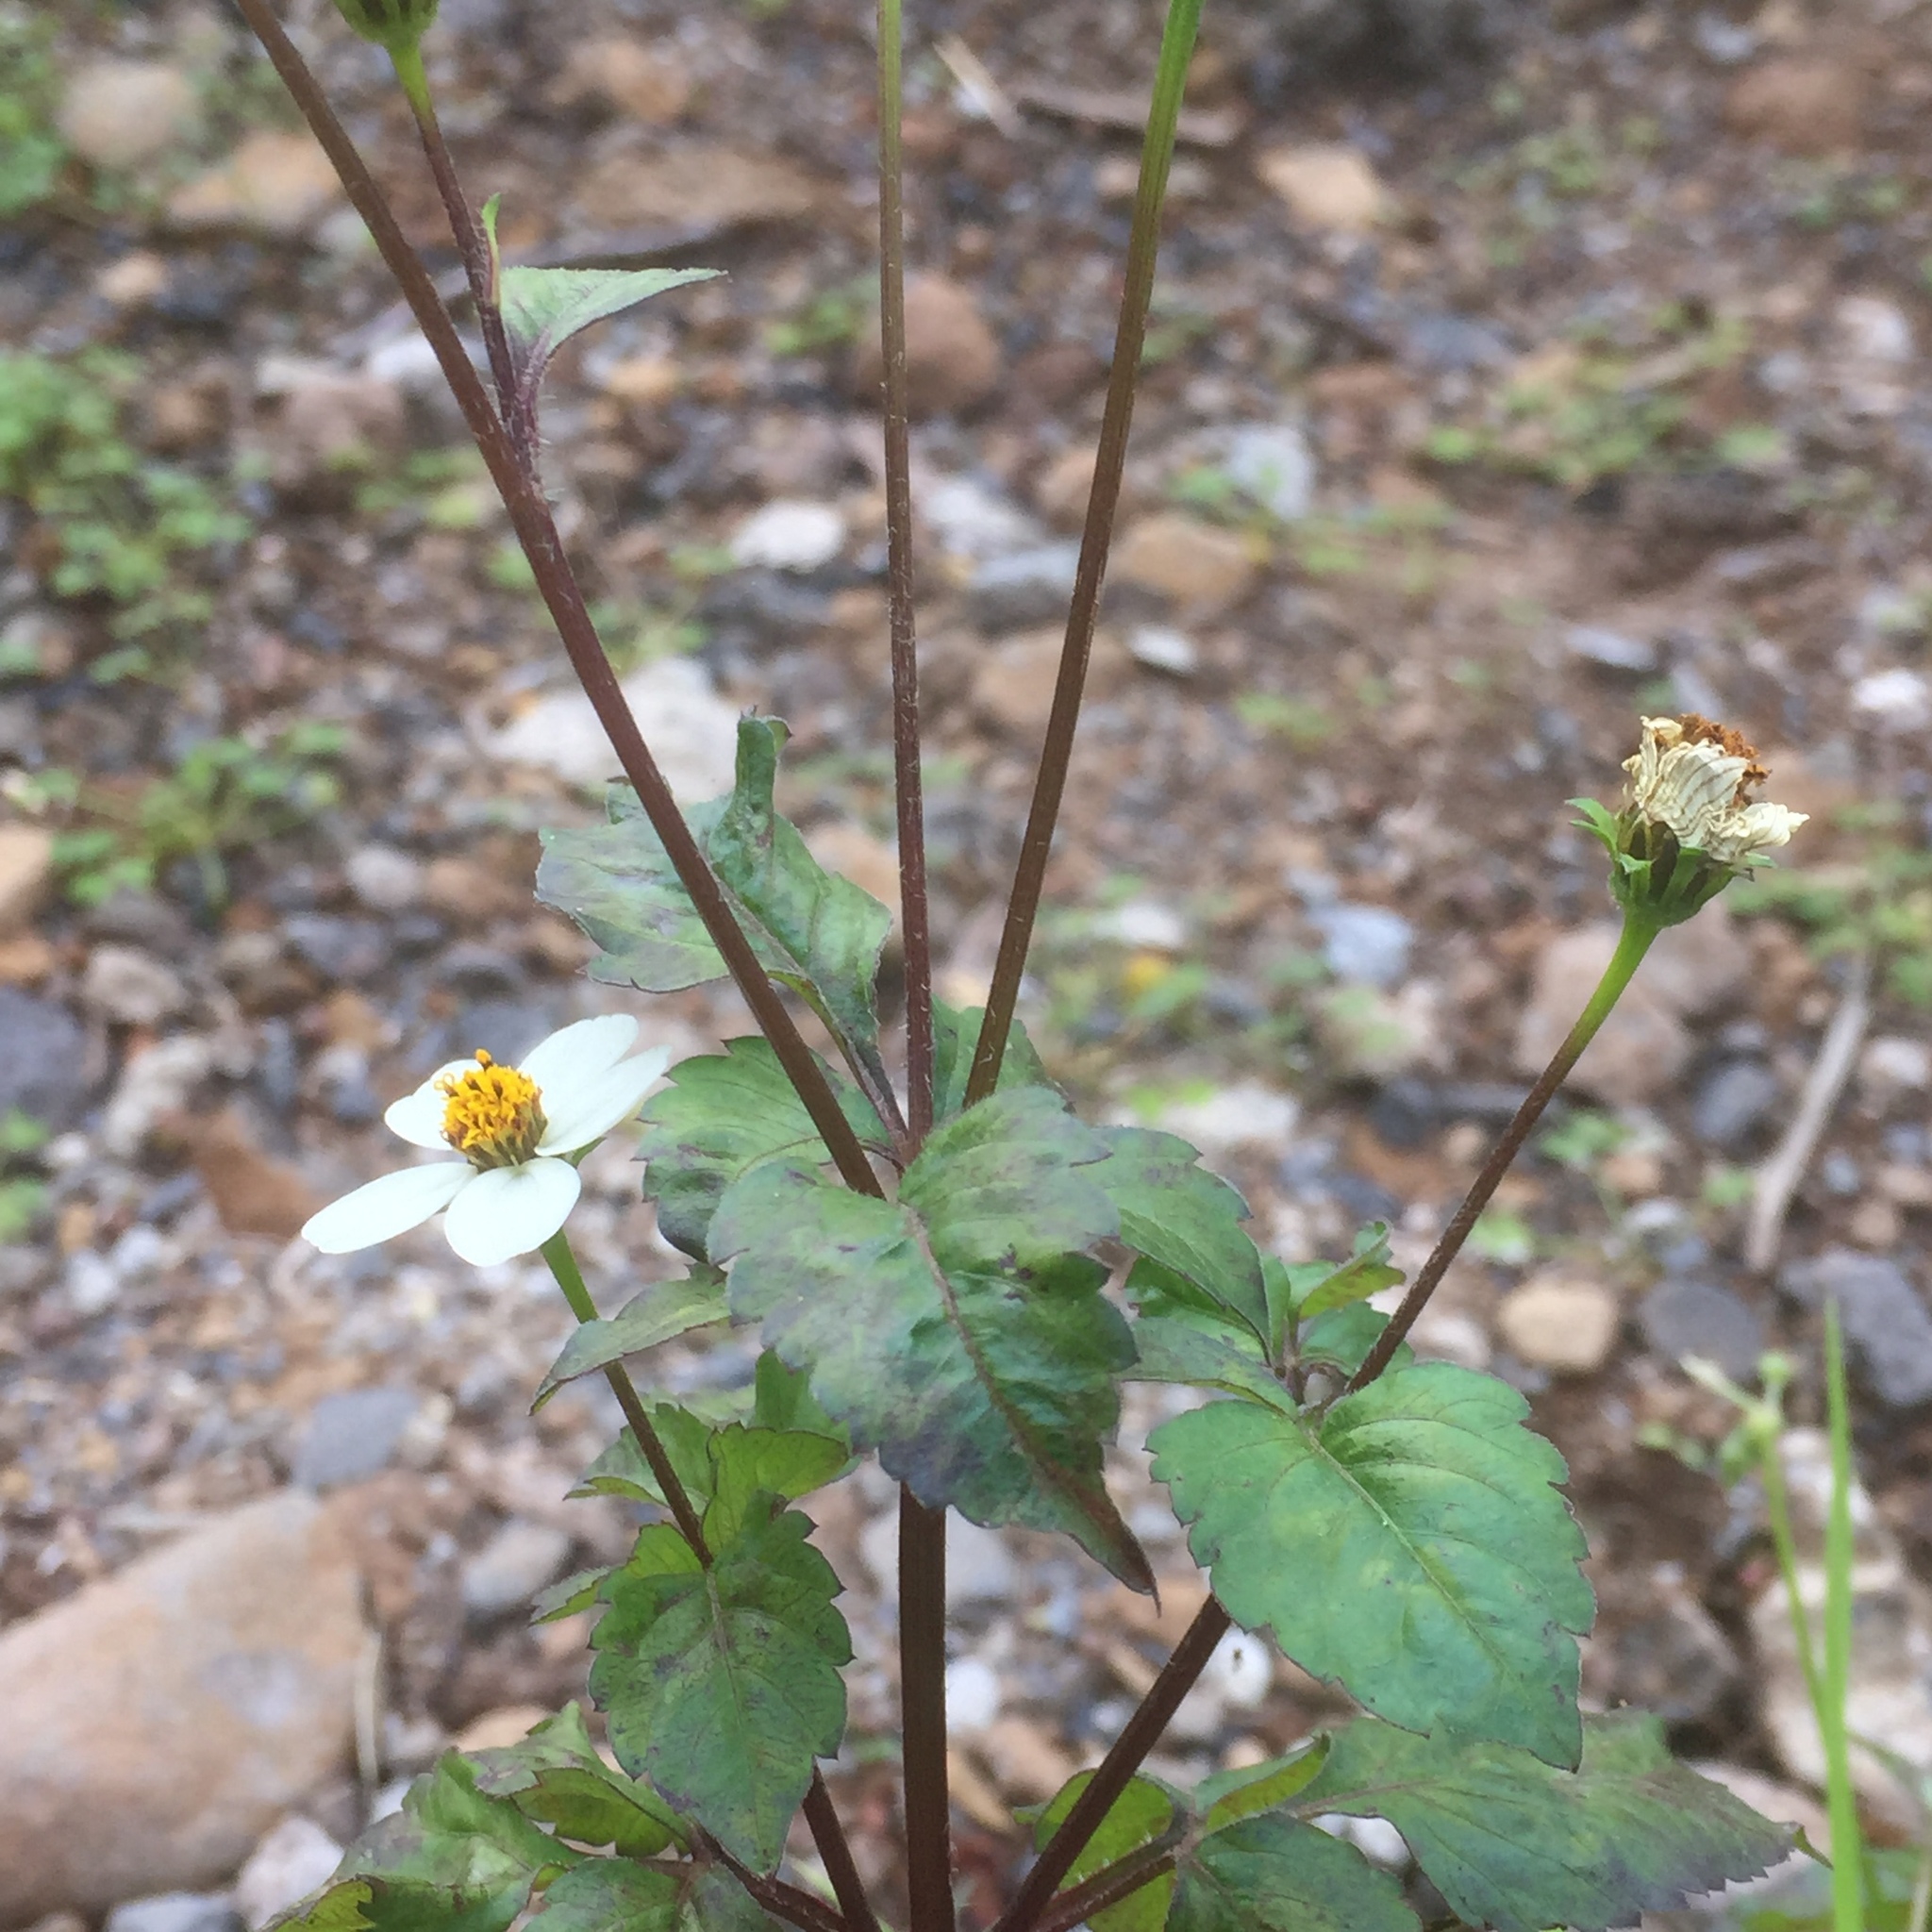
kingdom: Plantae
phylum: Tracheophyta
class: Magnoliopsida
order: Asterales
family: Asteraceae
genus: Bidens
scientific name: Bidens pilosa
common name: Black-jack
